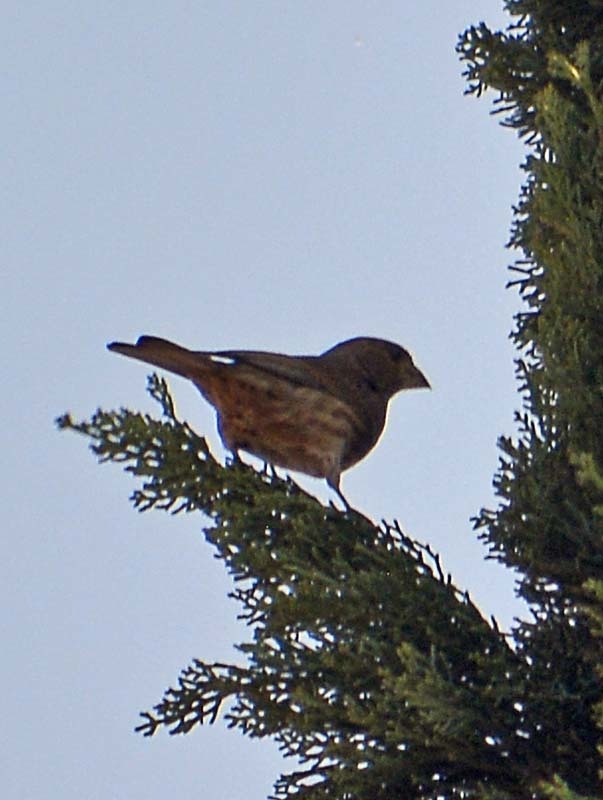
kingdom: Animalia
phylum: Chordata
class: Aves
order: Passeriformes
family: Fringillidae
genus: Haemorhous
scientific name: Haemorhous mexicanus
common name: House finch
